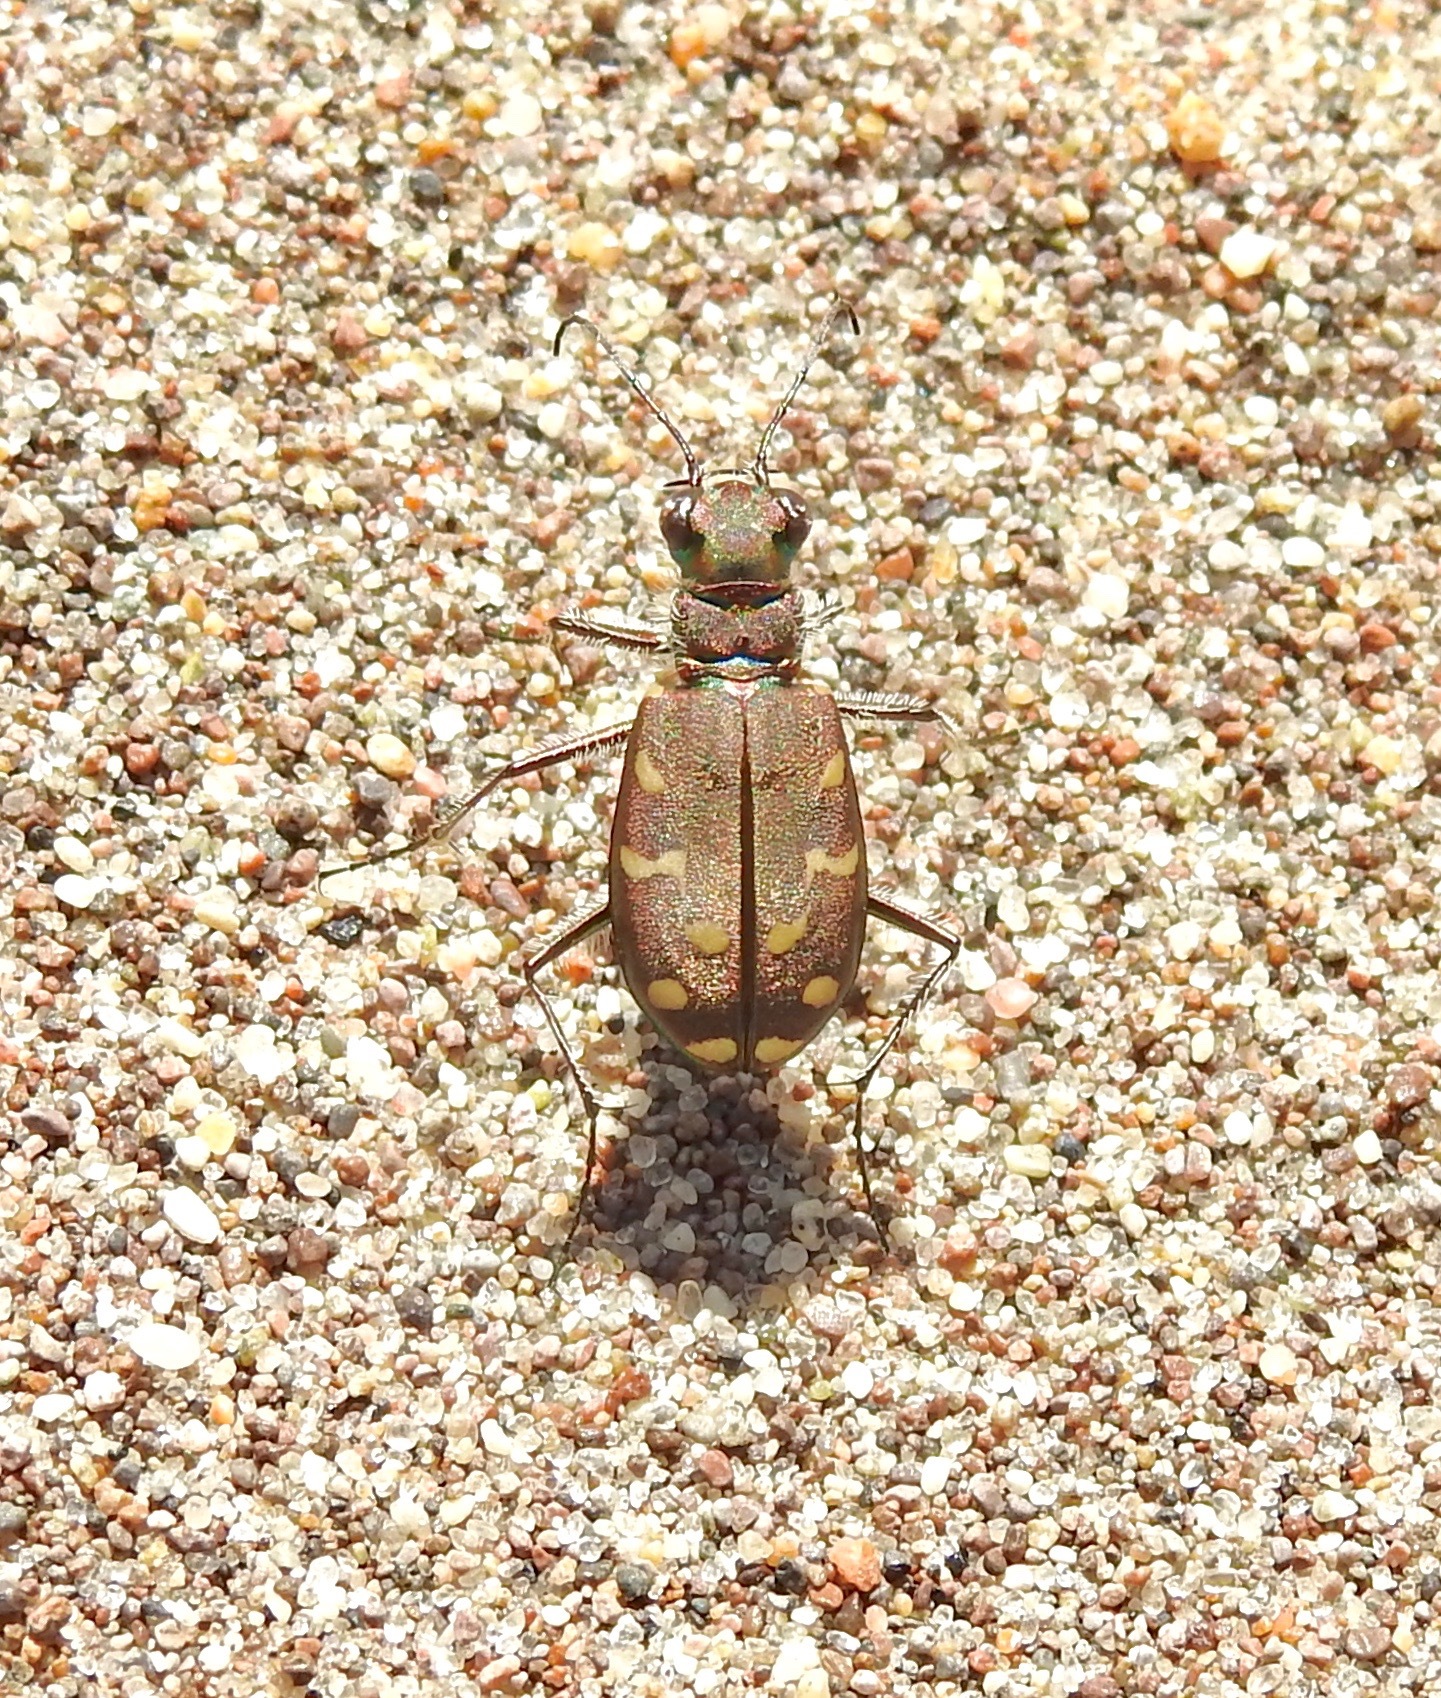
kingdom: Animalia
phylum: Arthropoda
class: Insecta
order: Coleoptera
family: Carabidae
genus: Cicindela
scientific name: Cicindela oregona
